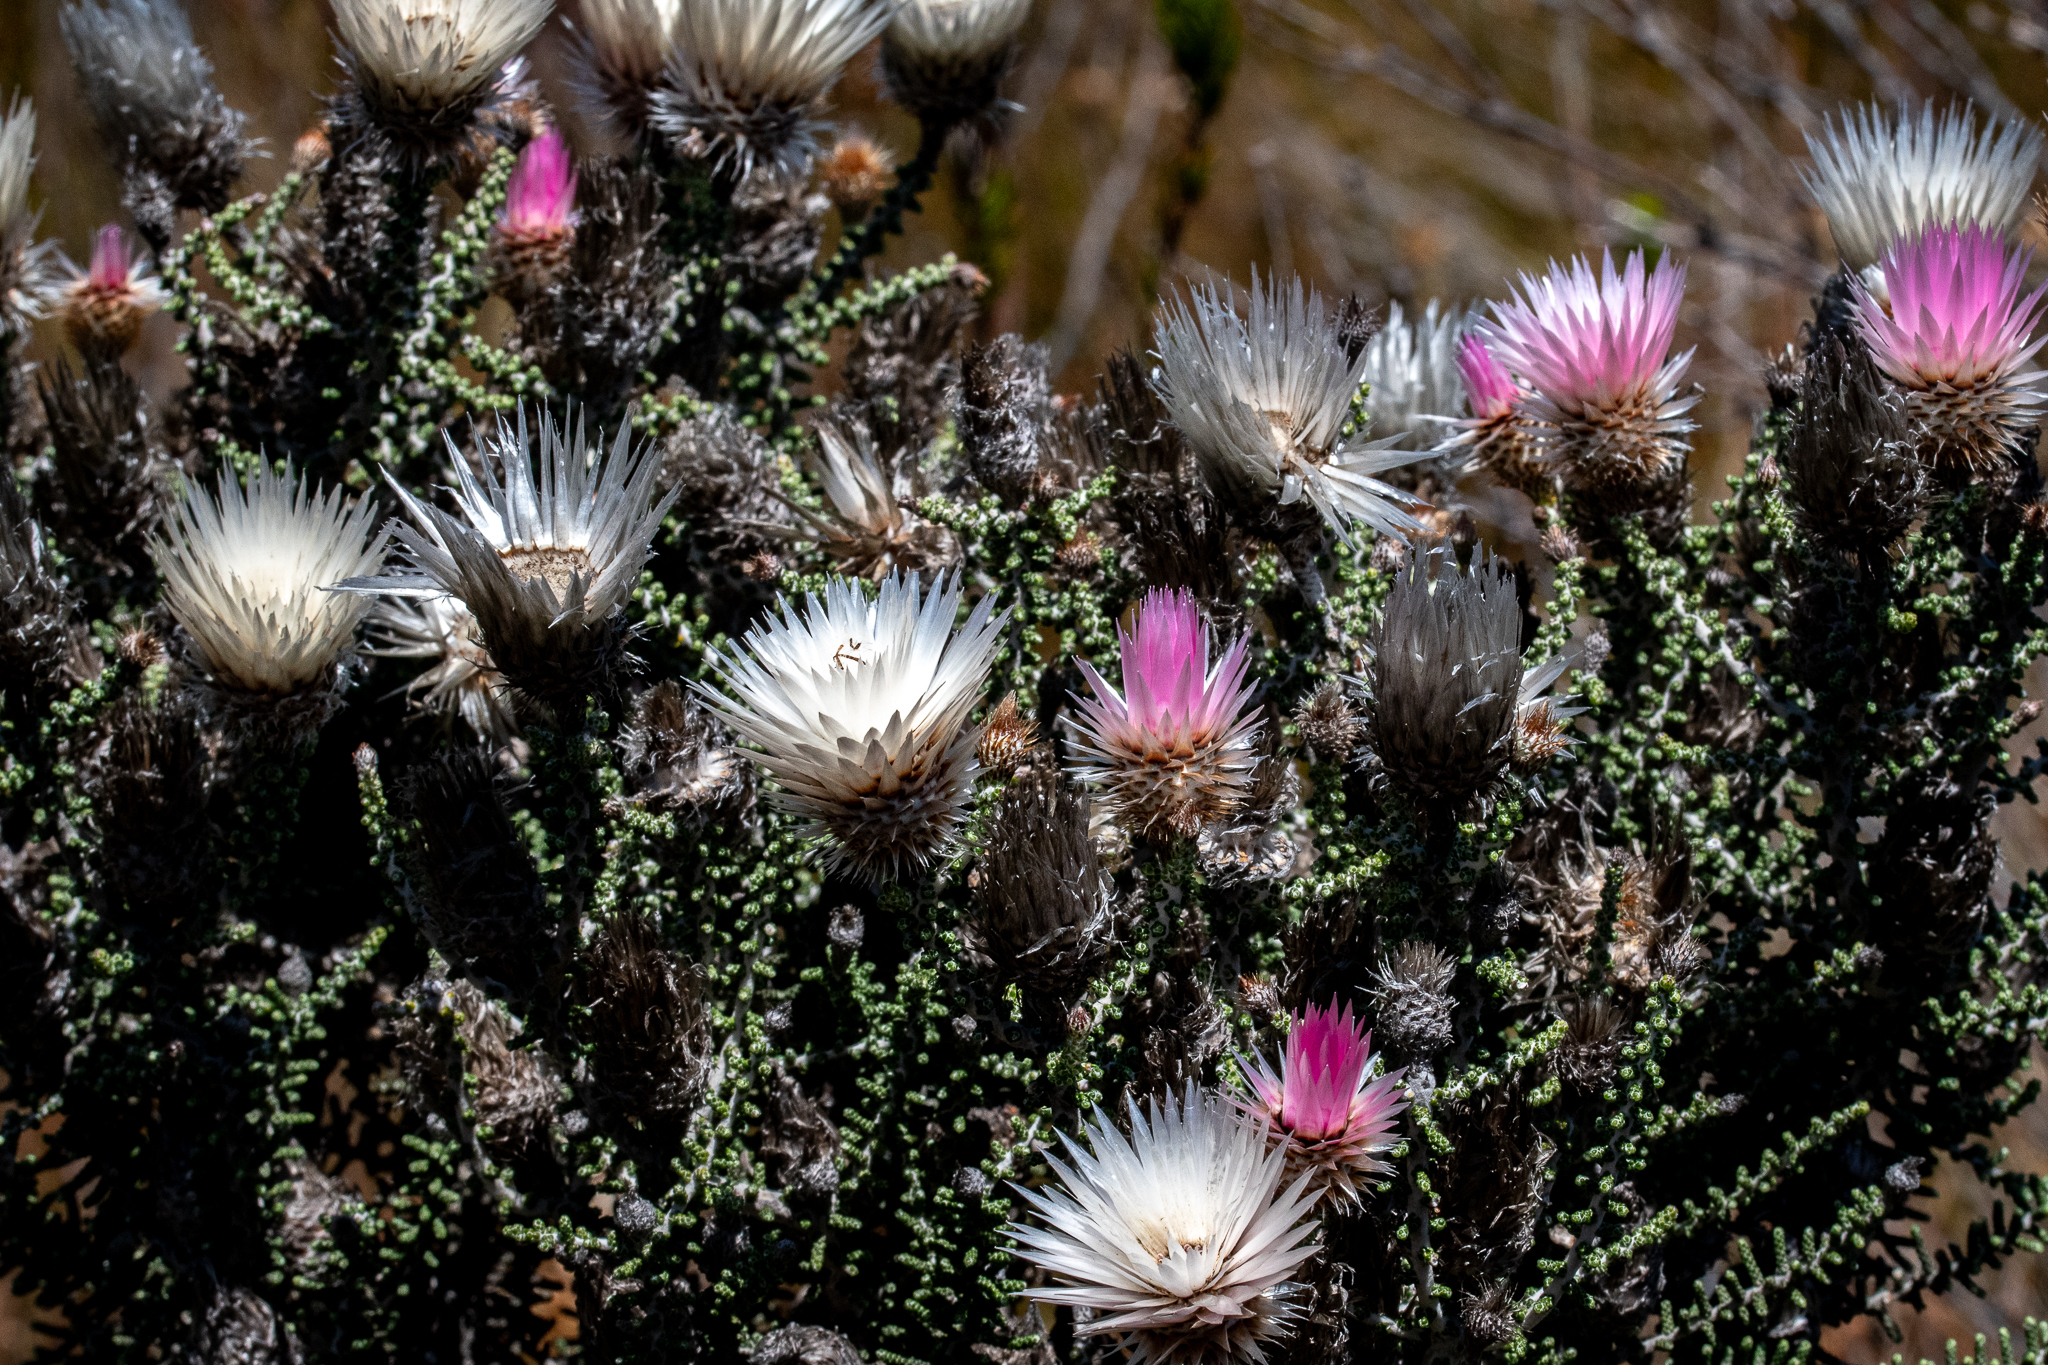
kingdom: Plantae
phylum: Tracheophyta
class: Magnoliopsida
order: Asterales
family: Asteraceae
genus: Phaenocoma
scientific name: Phaenocoma prolifera
